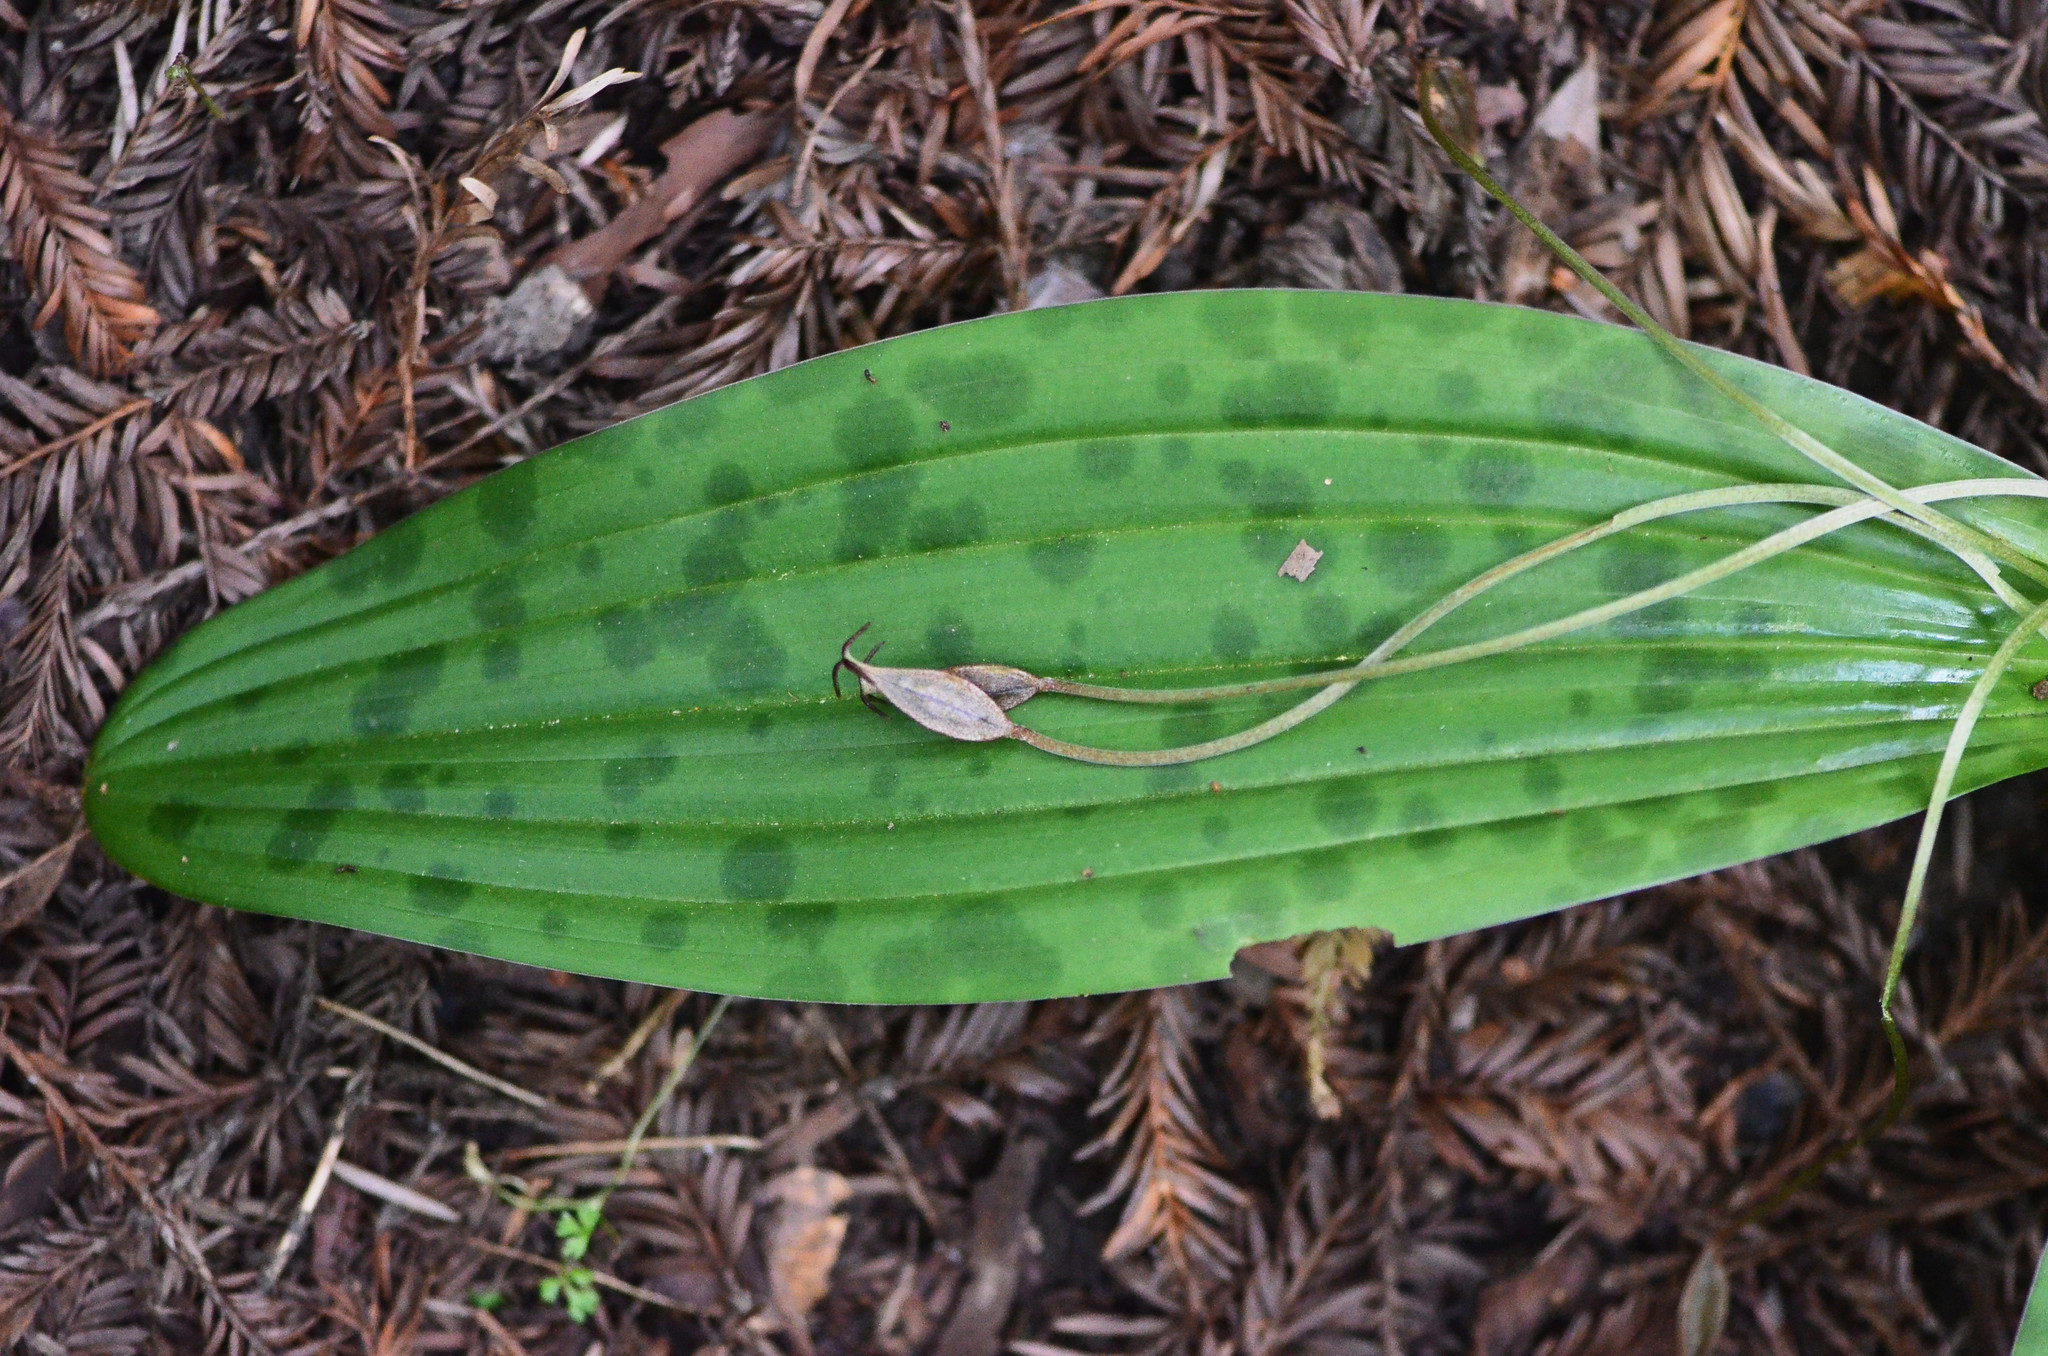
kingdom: Plantae
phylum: Tracheophyta
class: Liliopsida
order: Liliales
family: Liliaceae
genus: Scoliopus
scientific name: Scoliopus bigelovii
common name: Foetid adder's-tongue
